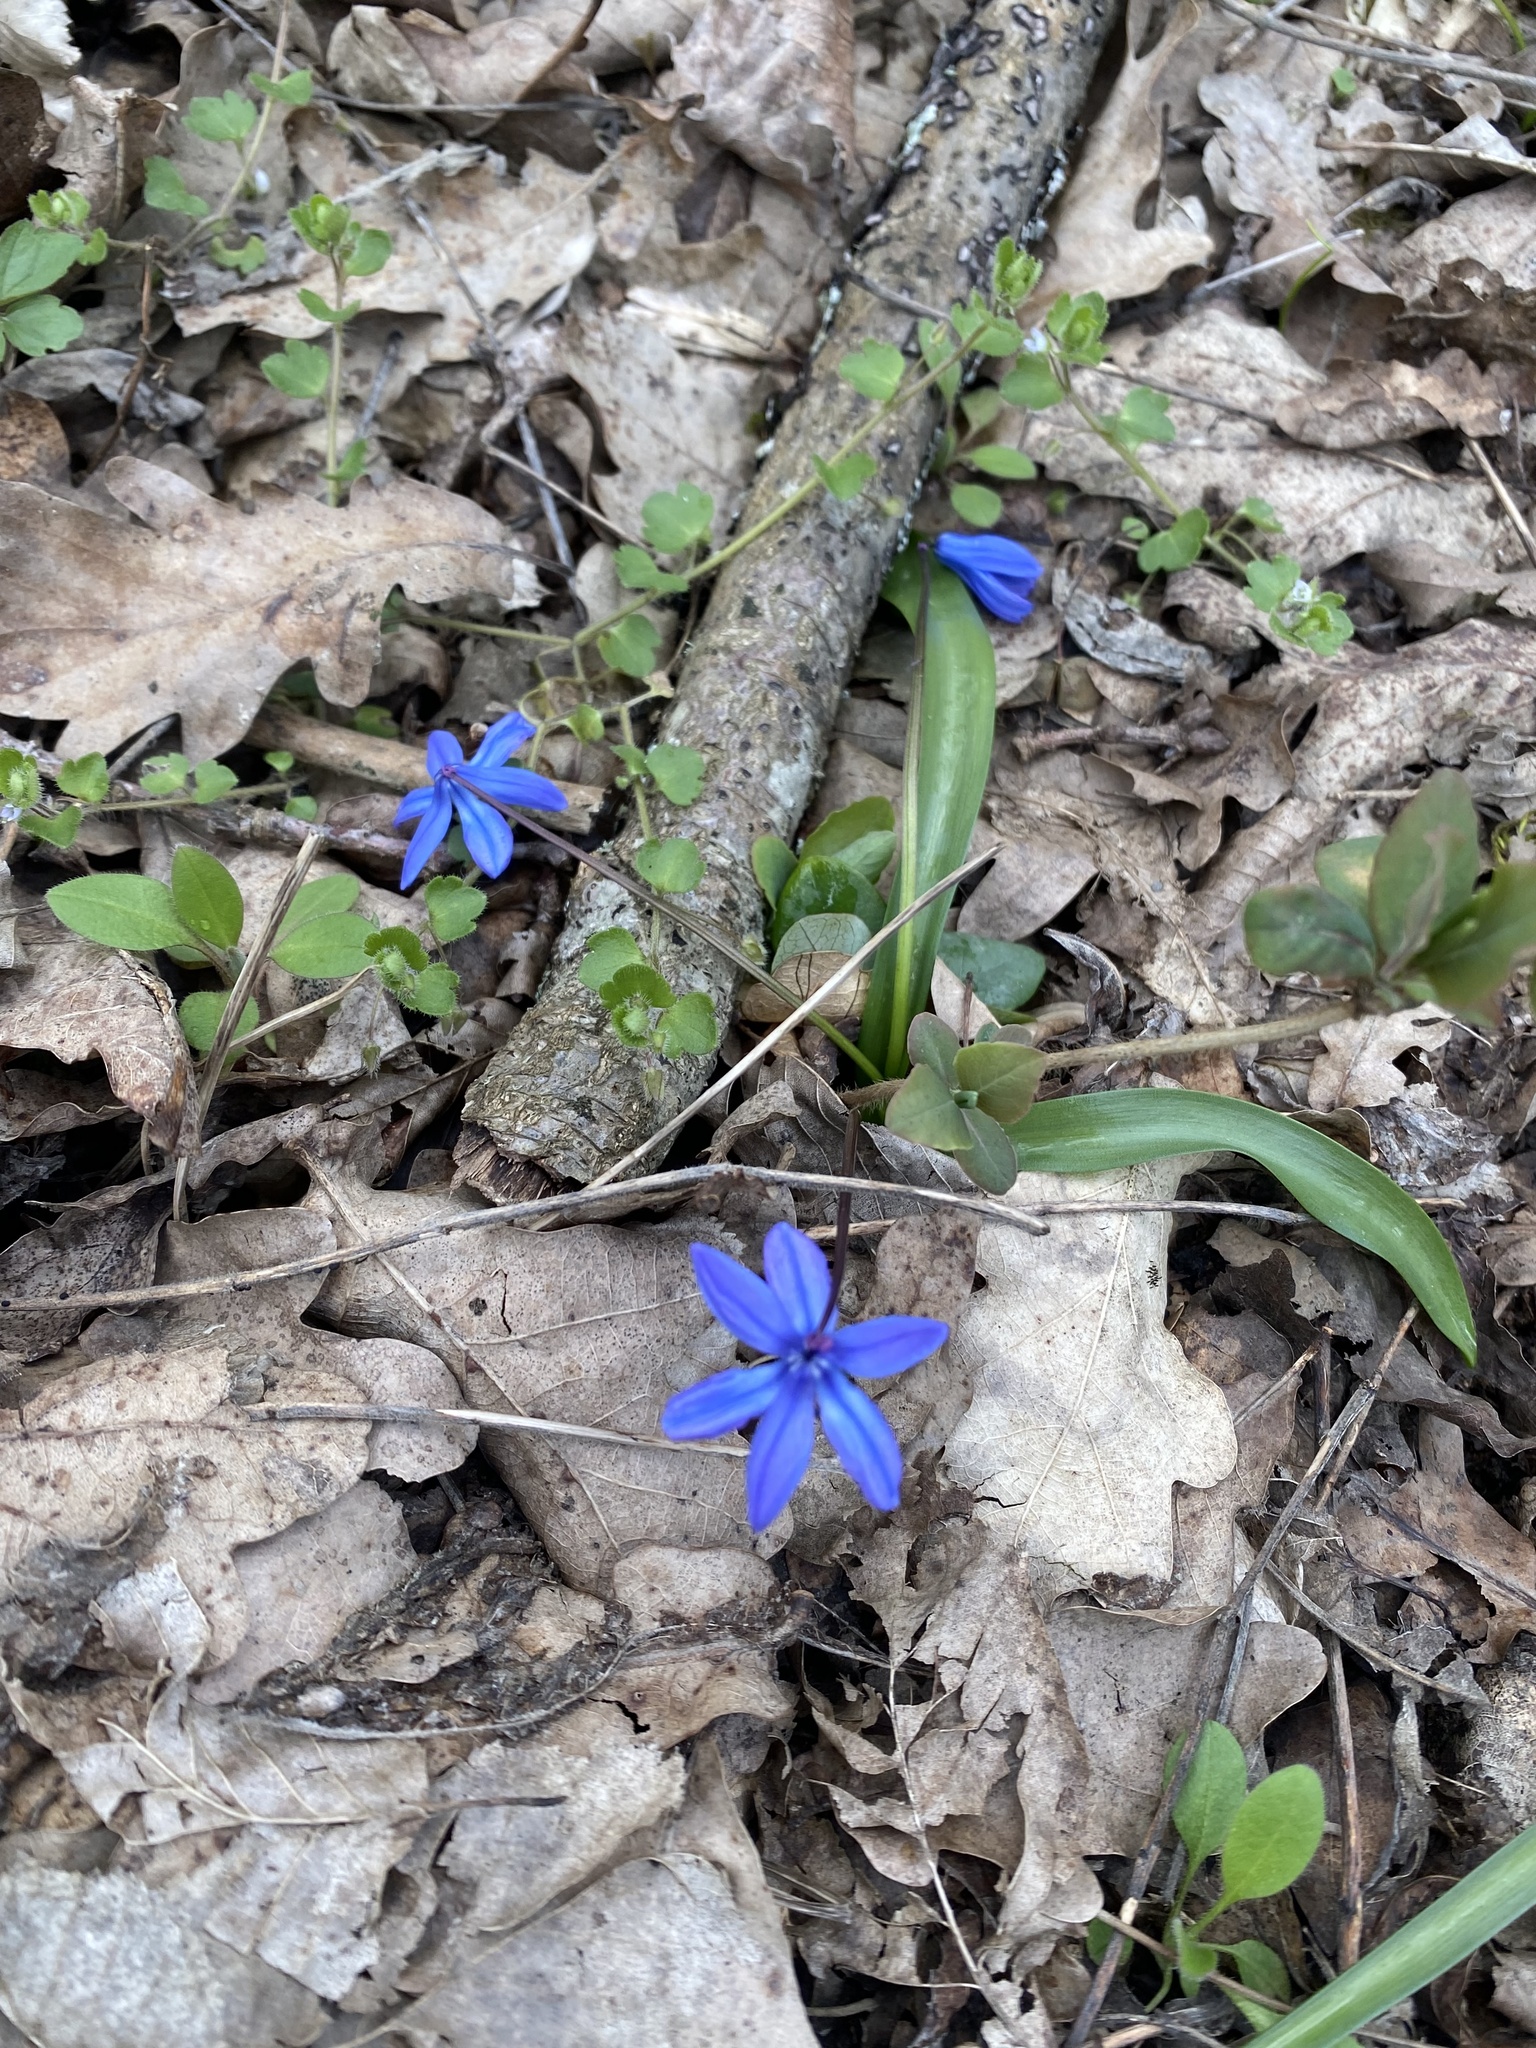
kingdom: Plantae
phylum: Tracheophyta
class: Liliopsida
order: Asparagales
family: Asparagaceae
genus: Scilla
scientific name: Scilla siberica
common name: Siberian squill
